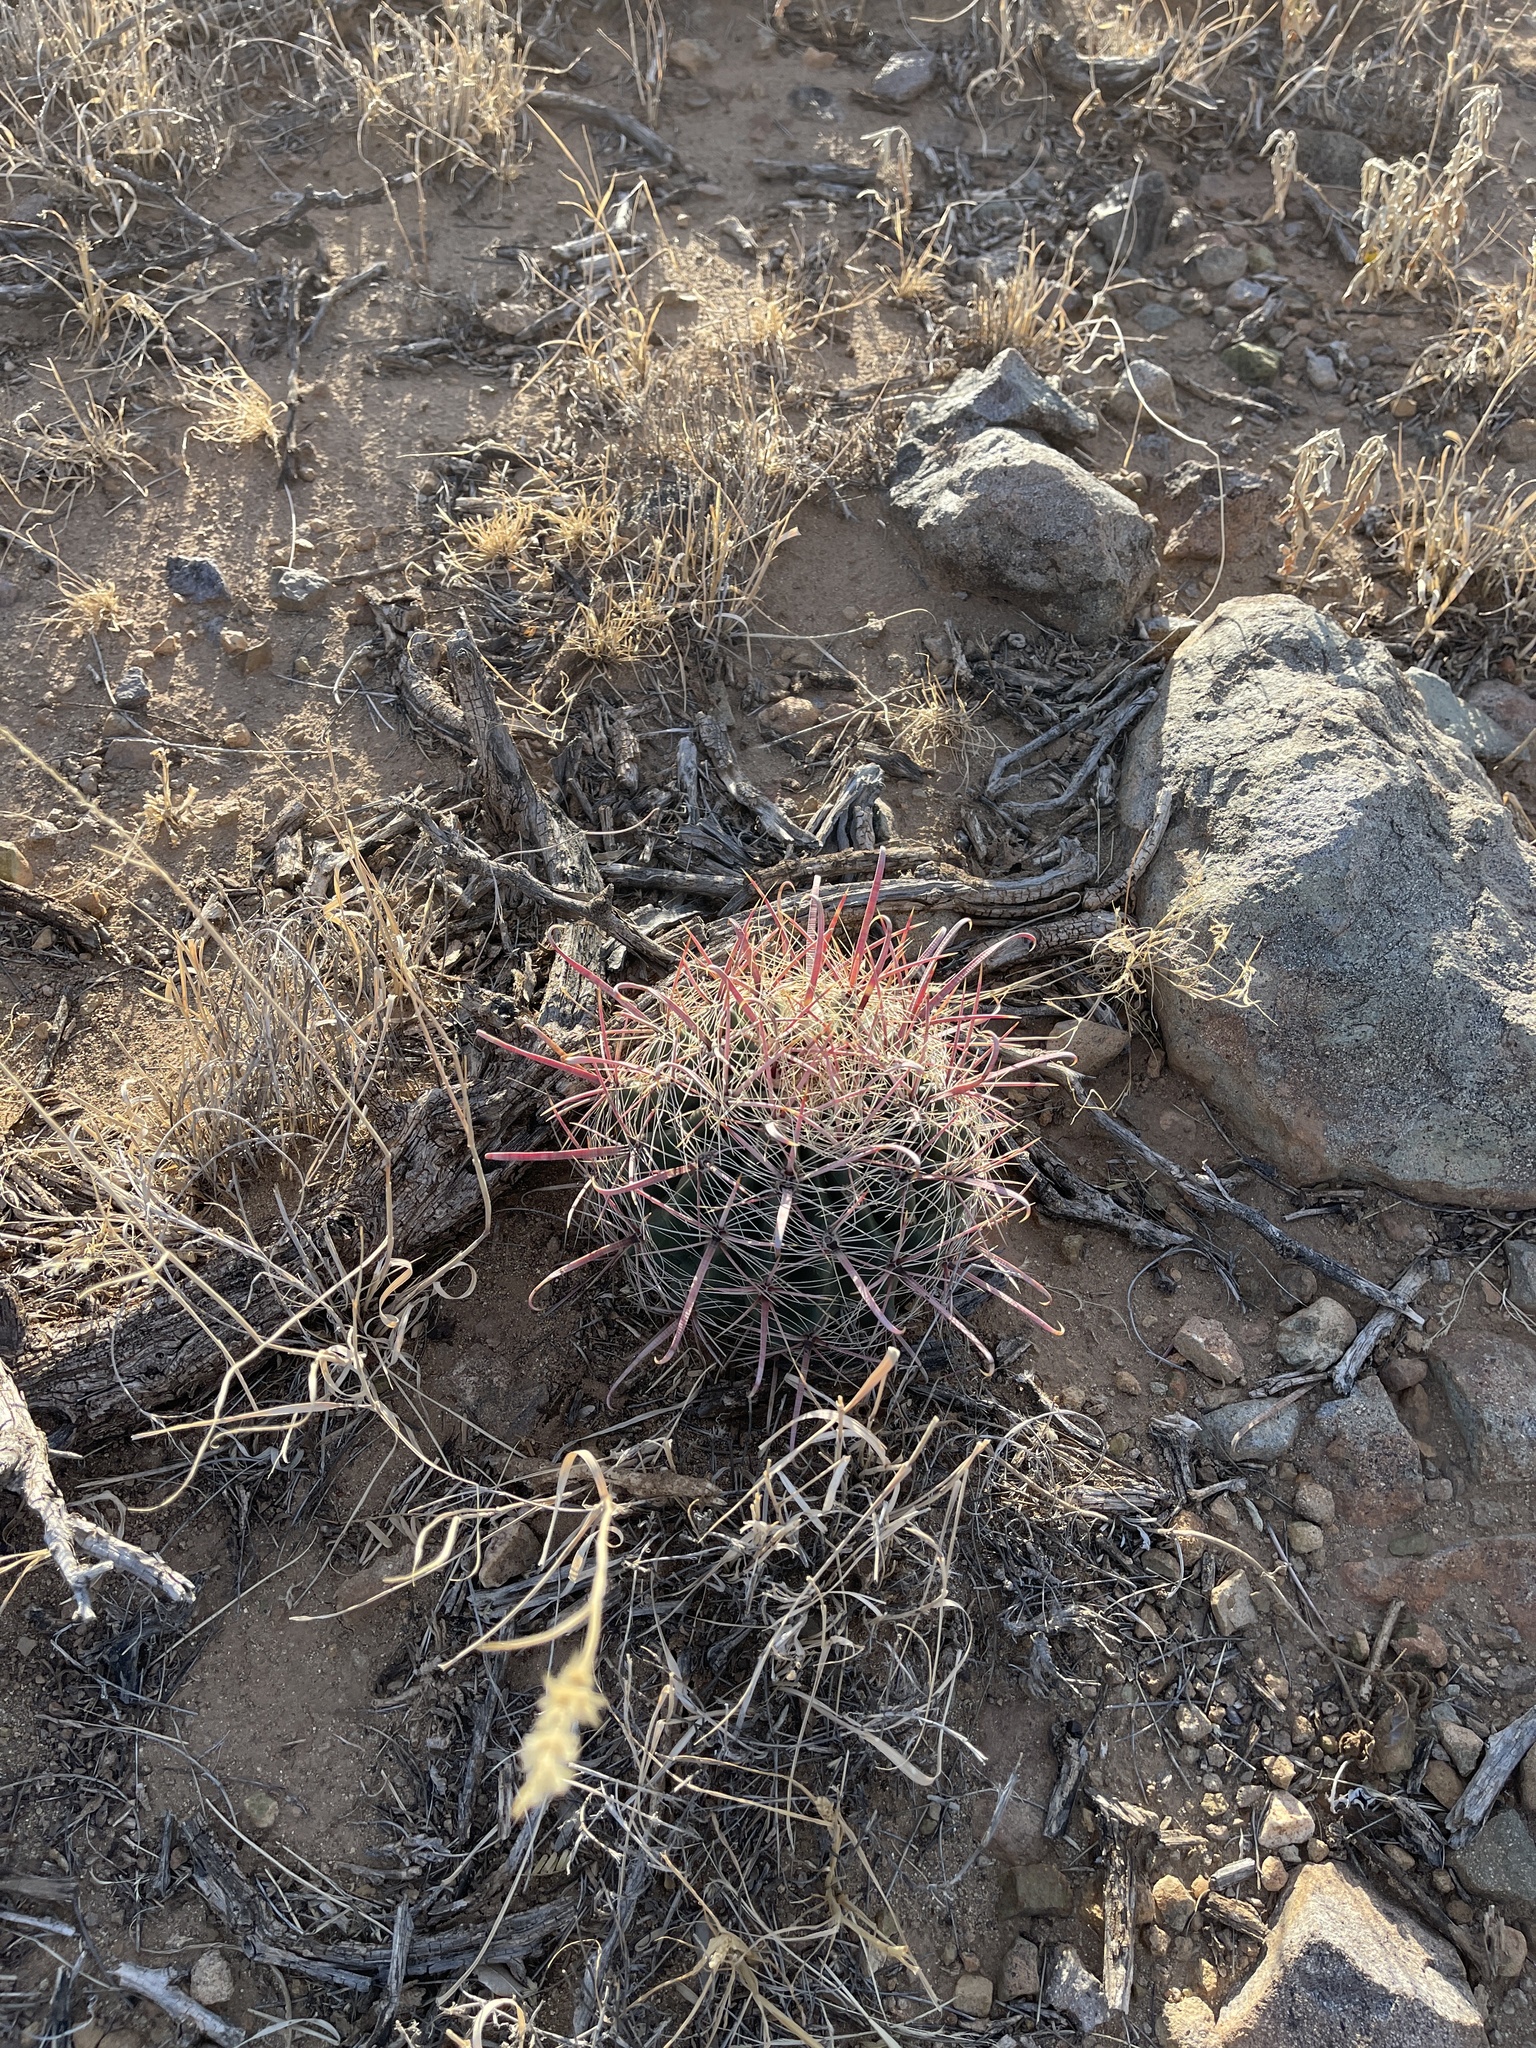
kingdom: Plantae
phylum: Tracheophyta
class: Magnoliopsida
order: Caryophyllales
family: Cactaceae
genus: Ferocactus
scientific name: Ferocactus wislizeni
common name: Candy barrel cactus
